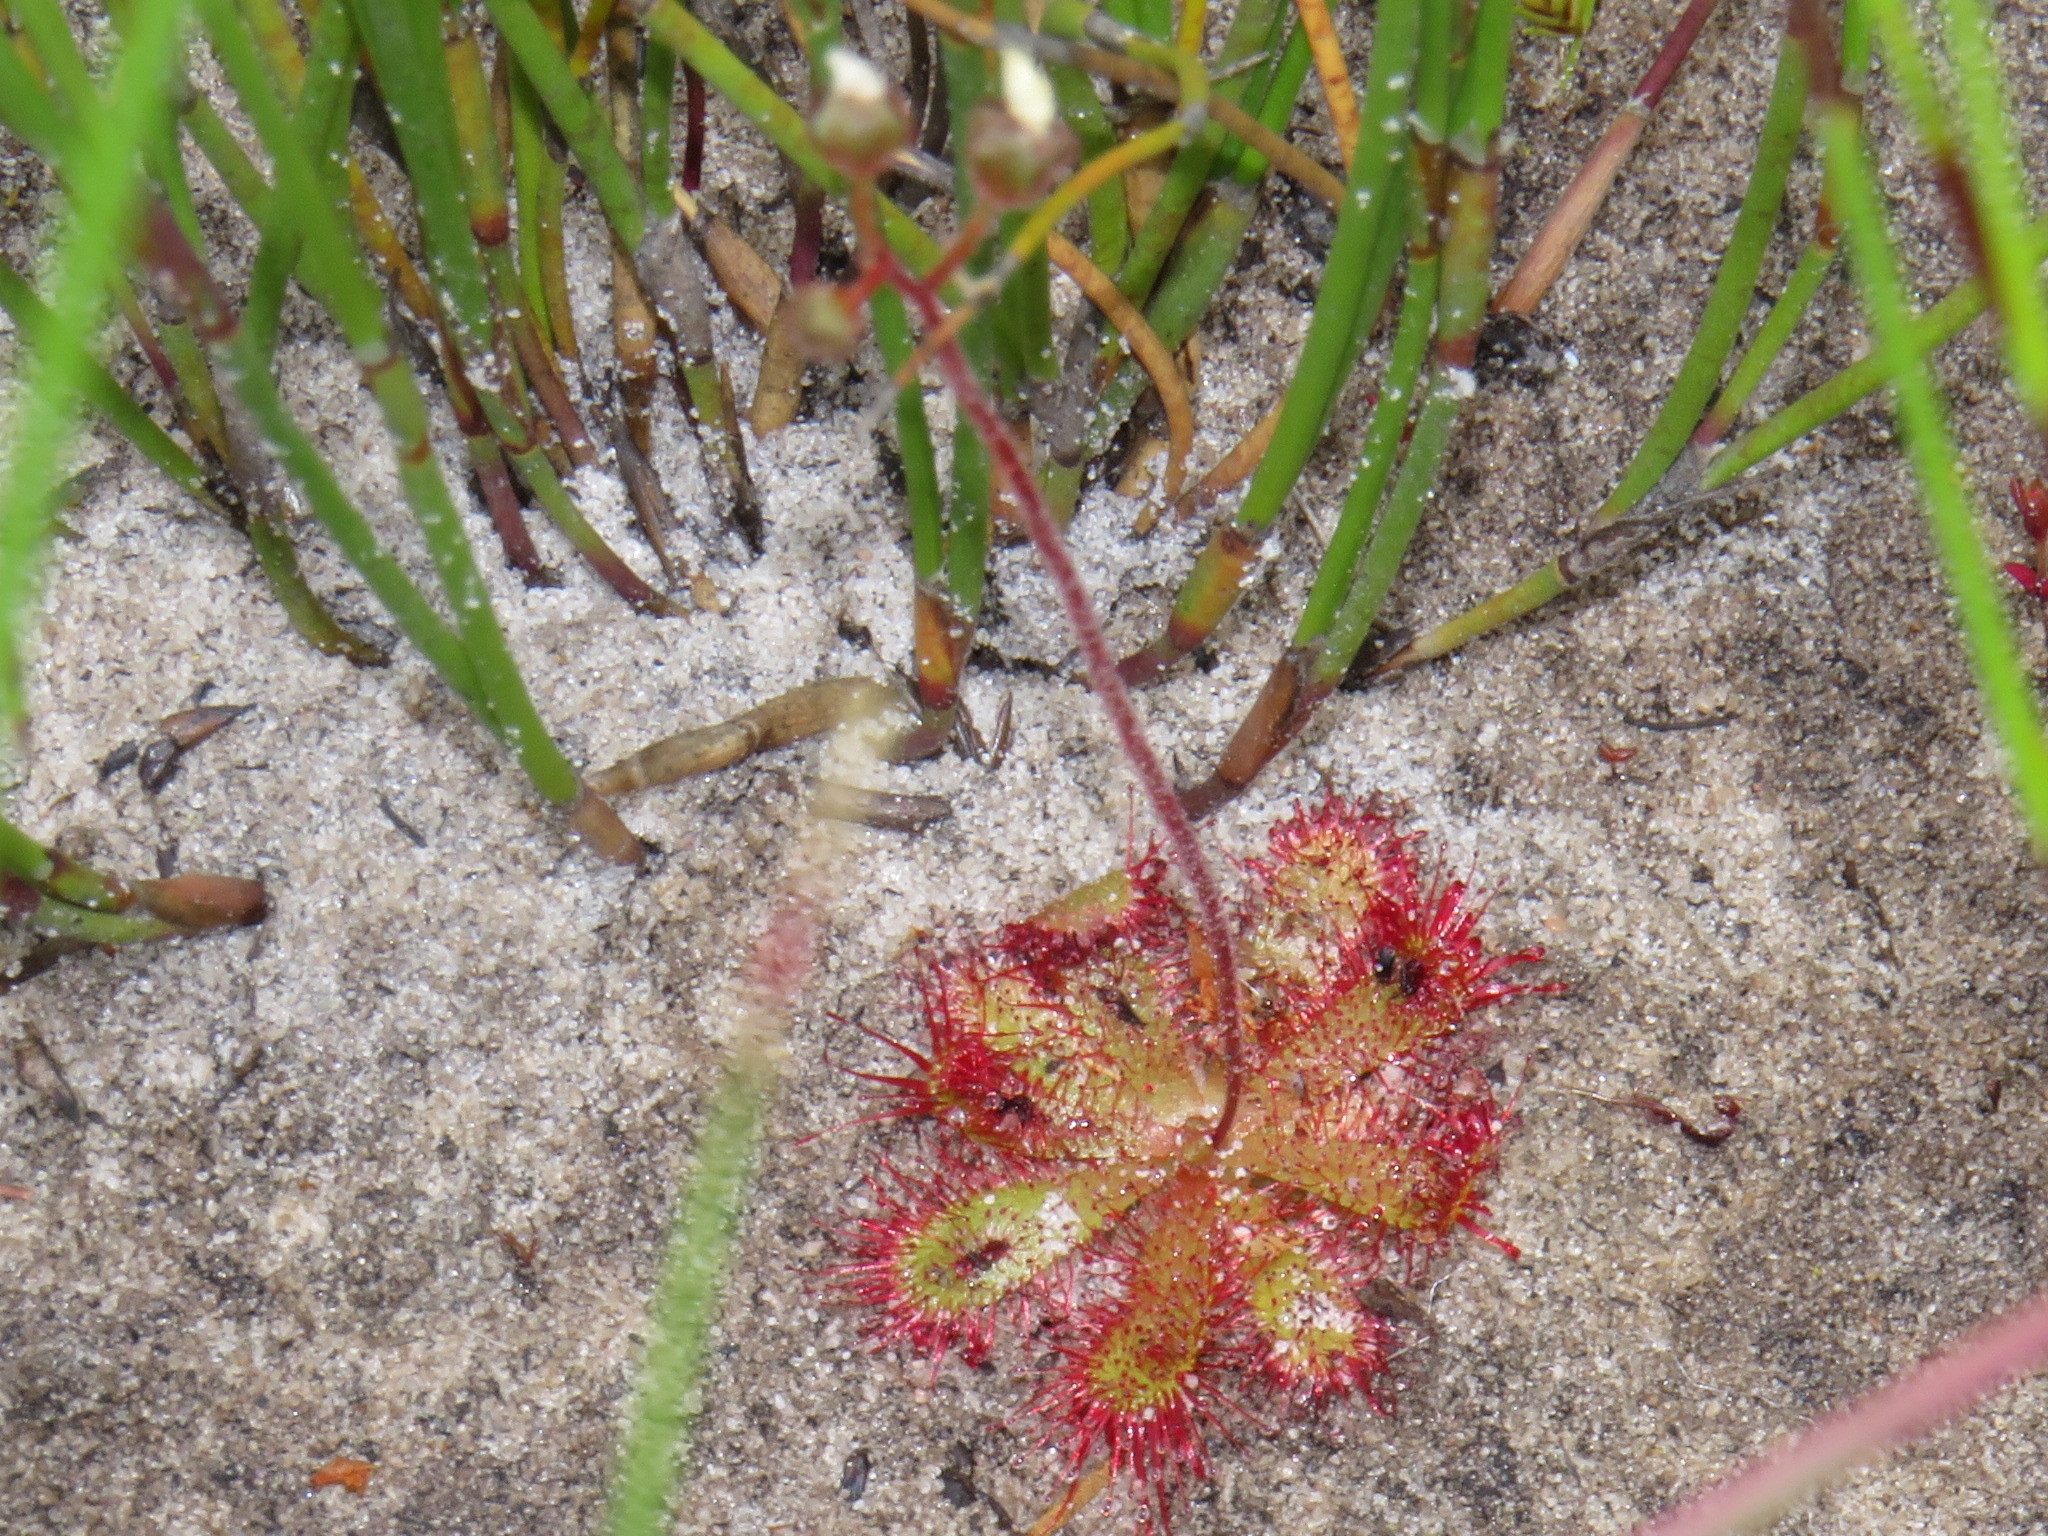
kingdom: Plantae
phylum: Tracheophyta
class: Magnoliopsida
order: Caryophyllales
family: Droseraceae
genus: Drosera
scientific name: Drosera trinervia
